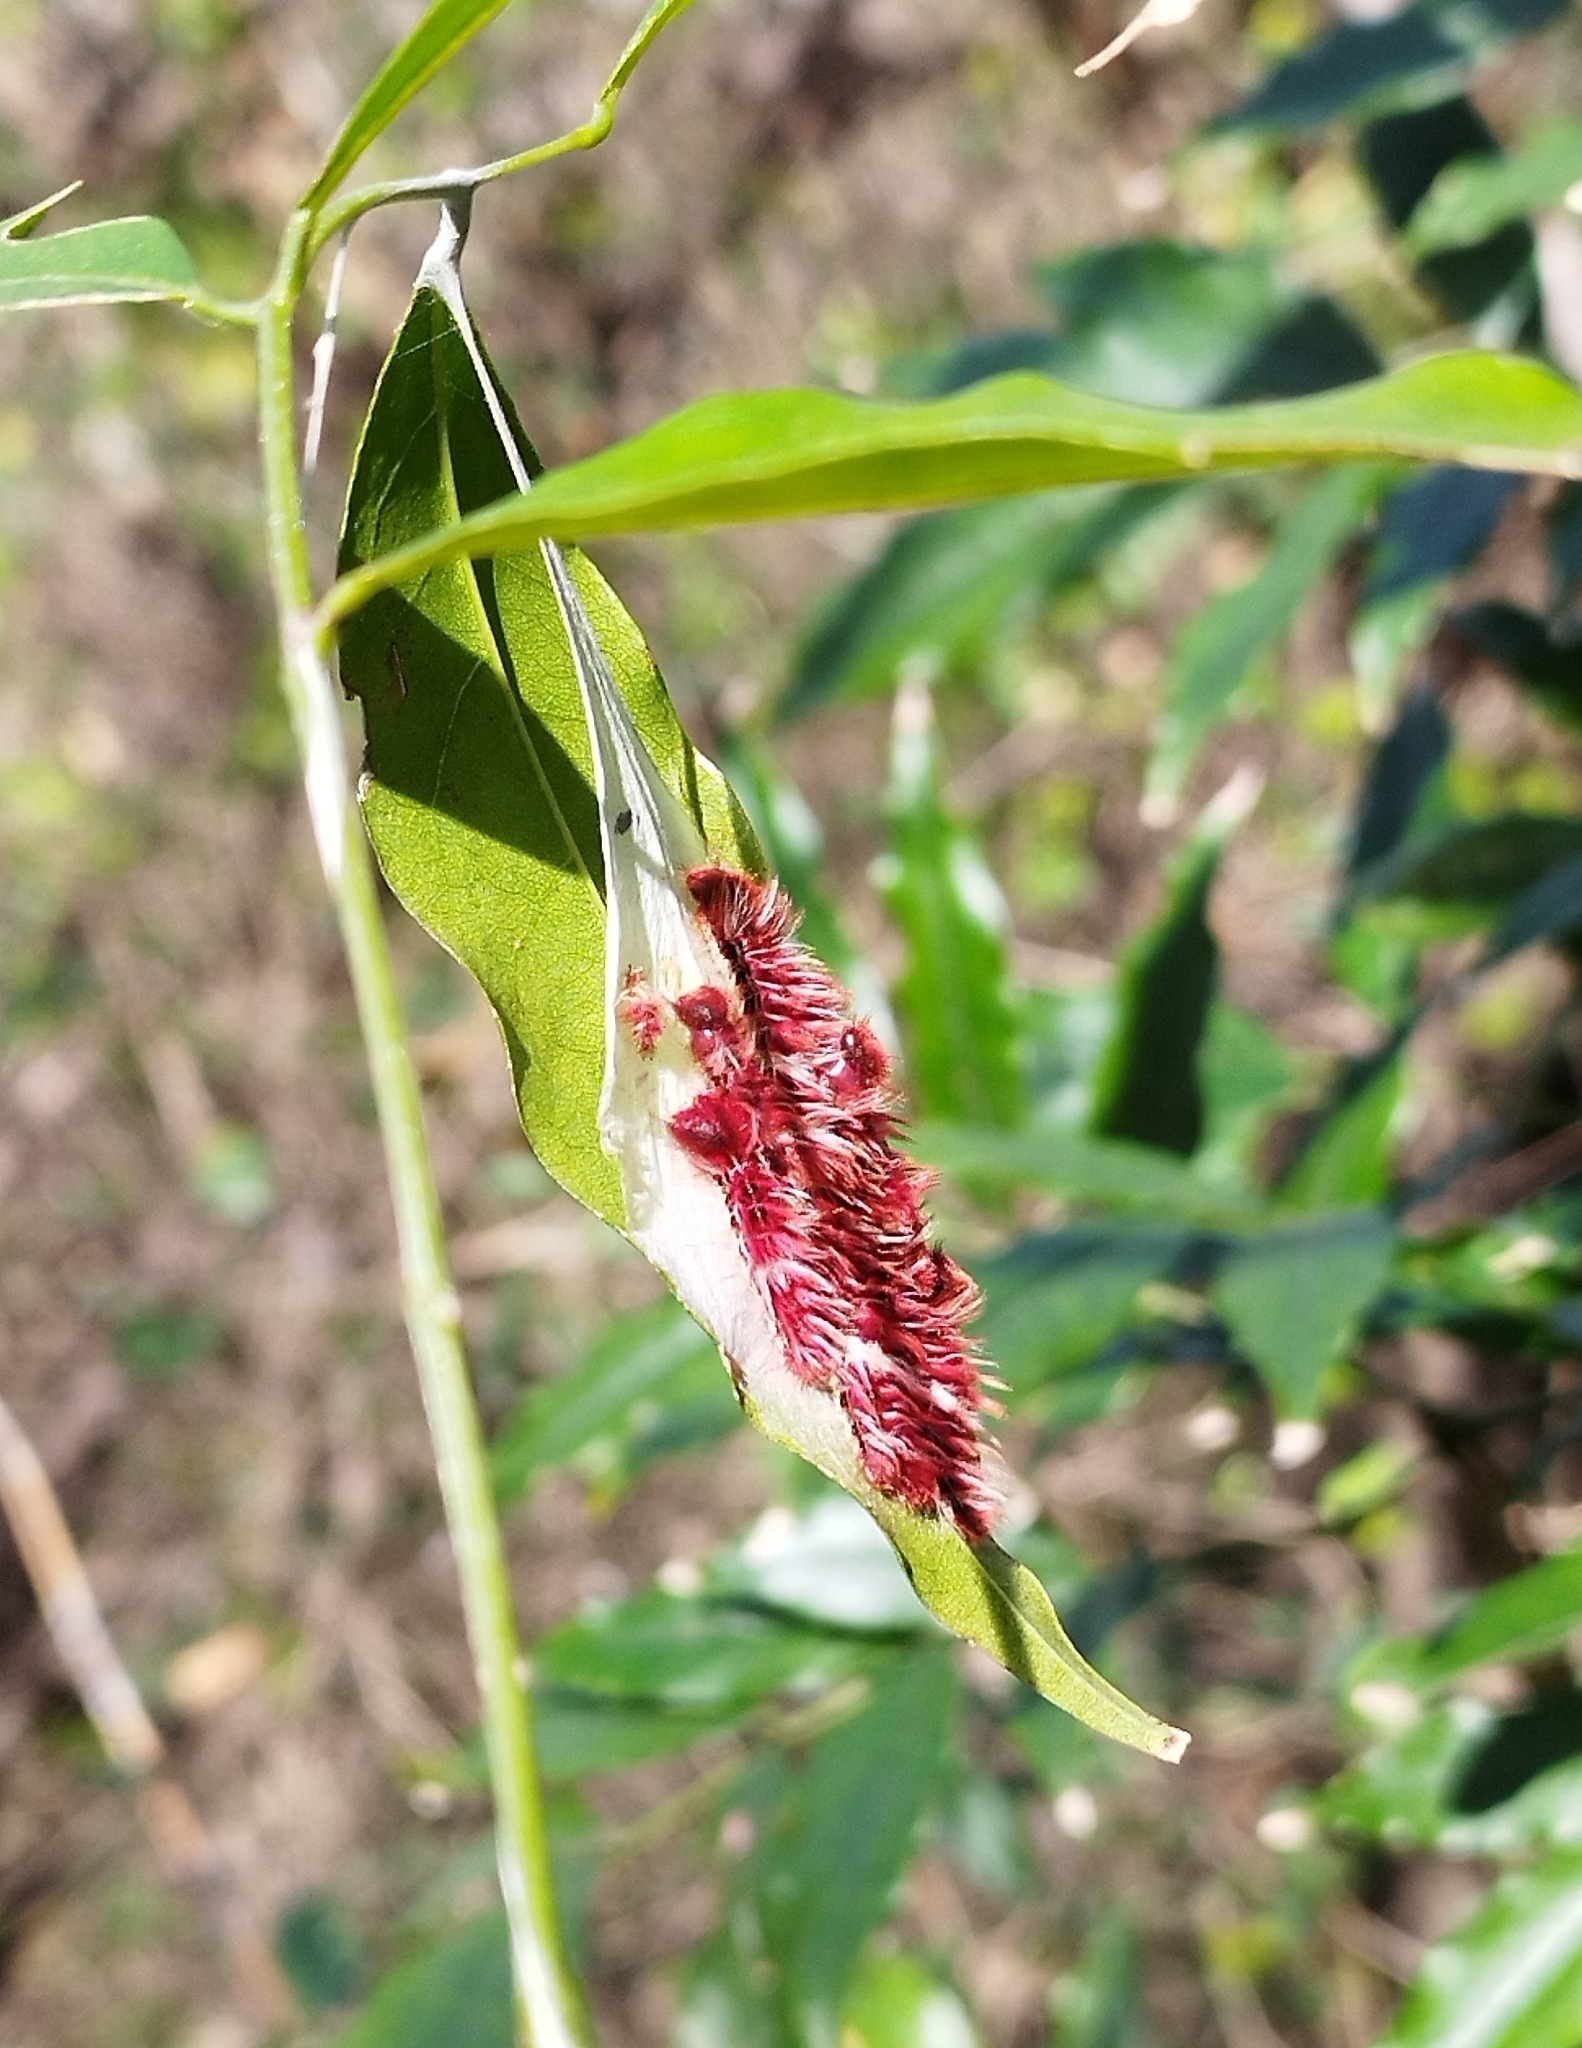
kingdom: Animalia
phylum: Arthropoda
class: Insecta
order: Lepidoptera
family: Nymphalidae
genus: Morpho
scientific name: Morpho epistrophus
